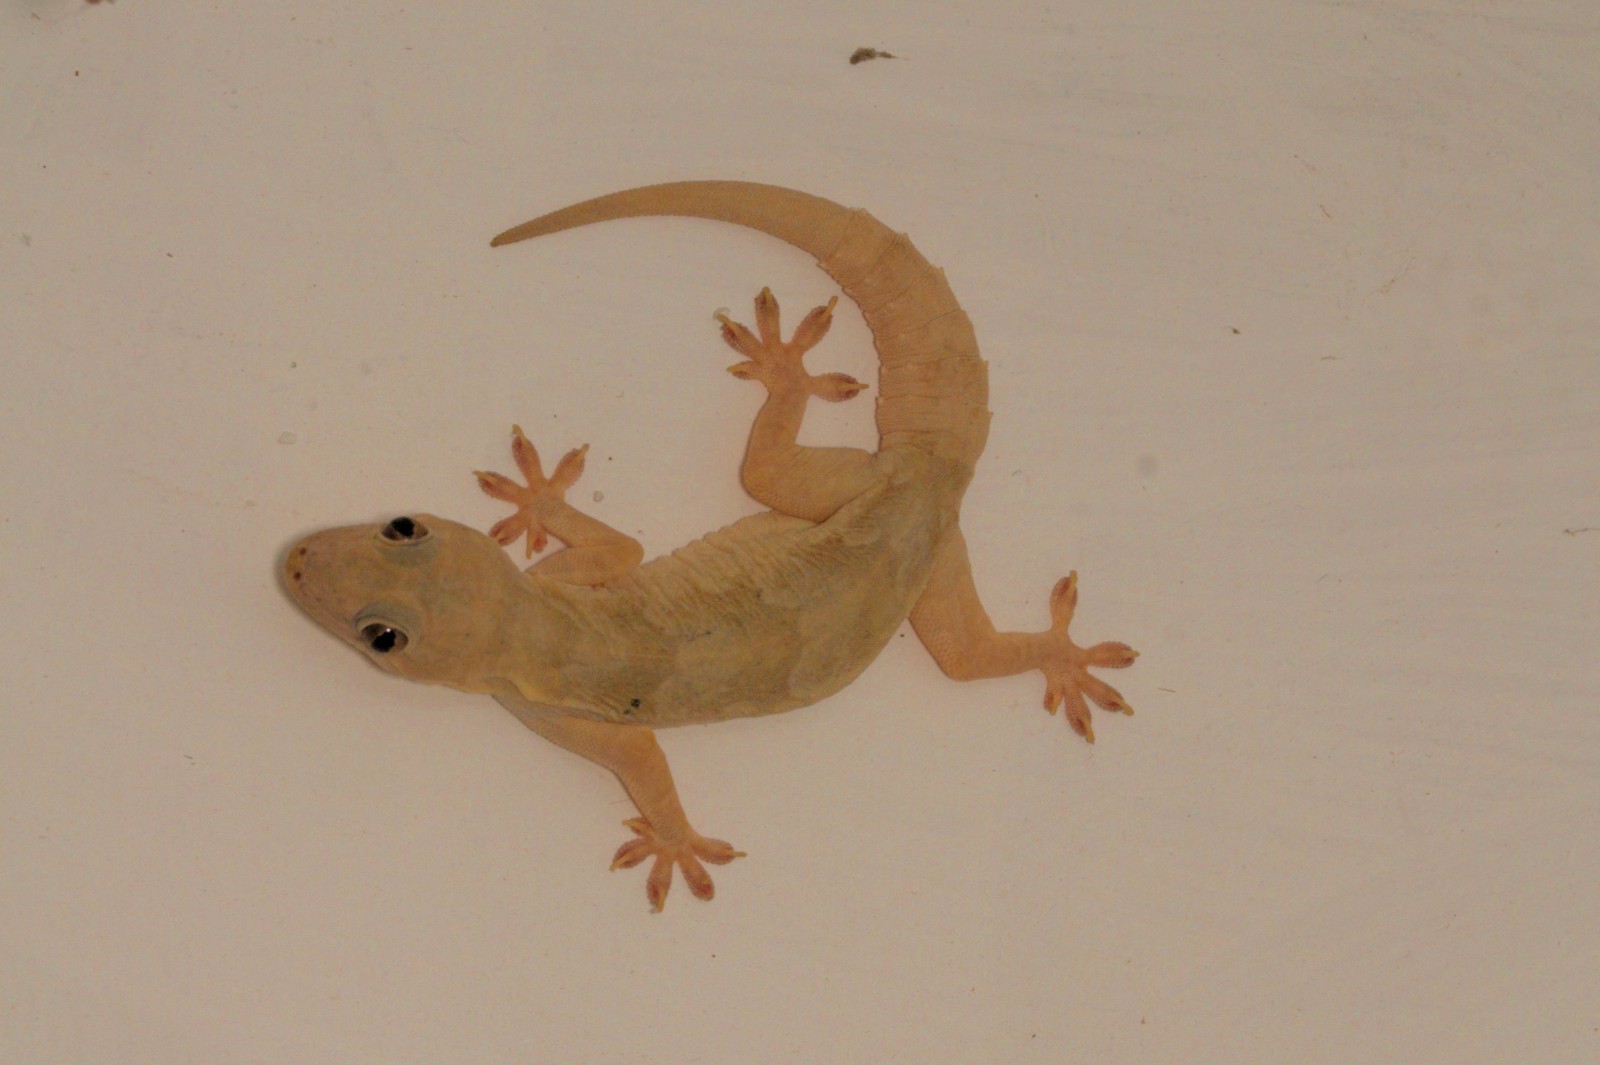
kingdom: Animalia
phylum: Chordata
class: Squamata
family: Gekkonidae
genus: Hemidactylus
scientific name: Hemidactylus leschenaultii
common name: Leschenault's leaf-toed gecko
